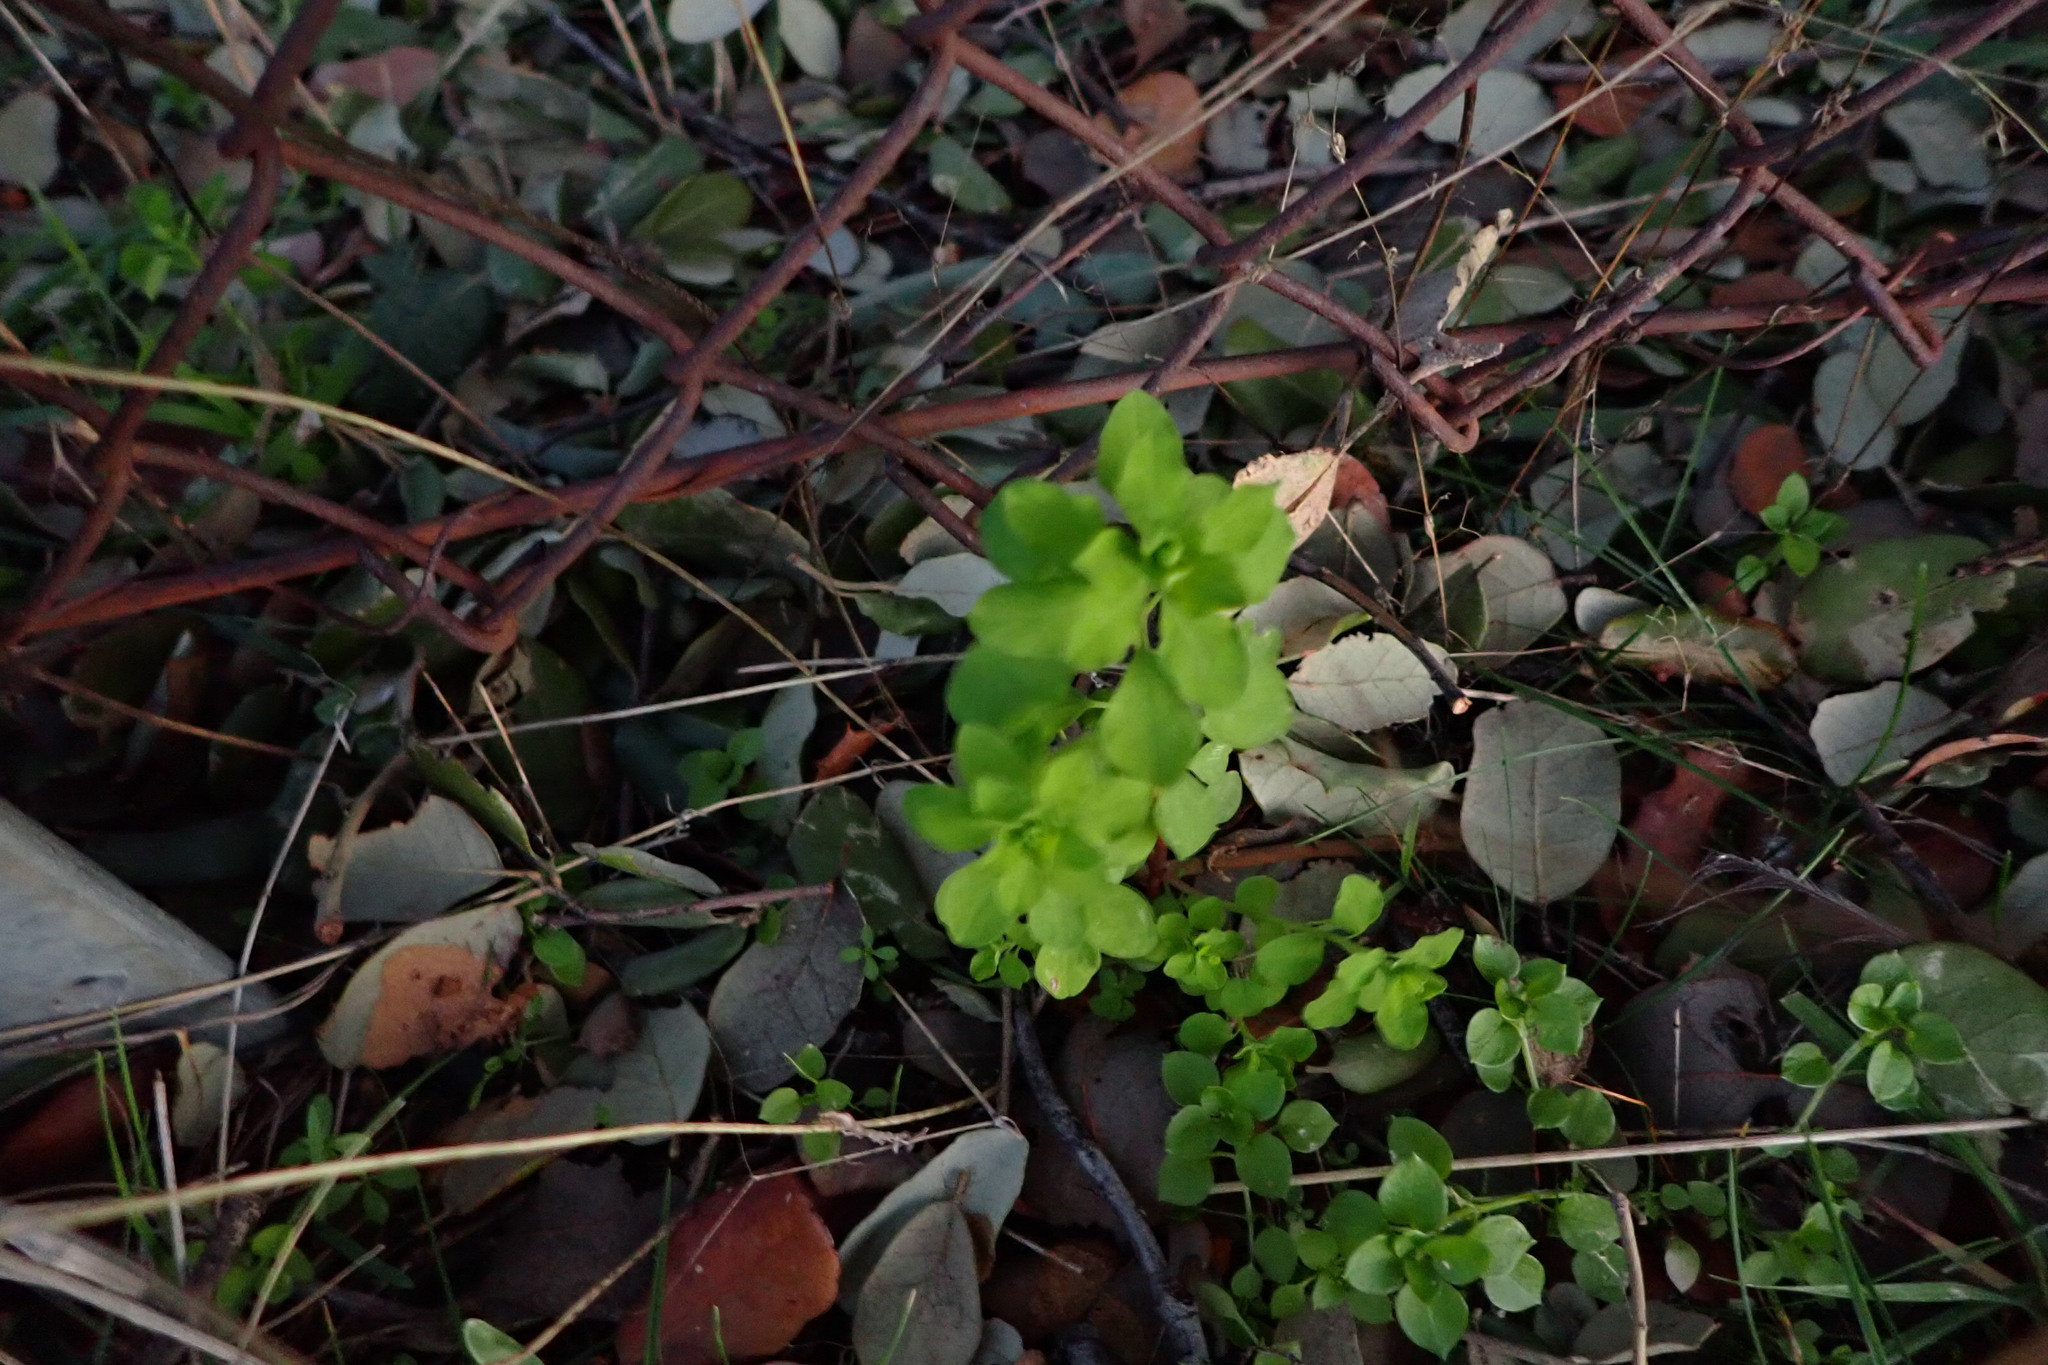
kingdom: Plantae
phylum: Tracheophyta
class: Magnoliopsida
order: Malpighiales
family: Euphorbiaceae
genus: Euphorbia
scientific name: Euphorbia peplus
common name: Petty spurge
